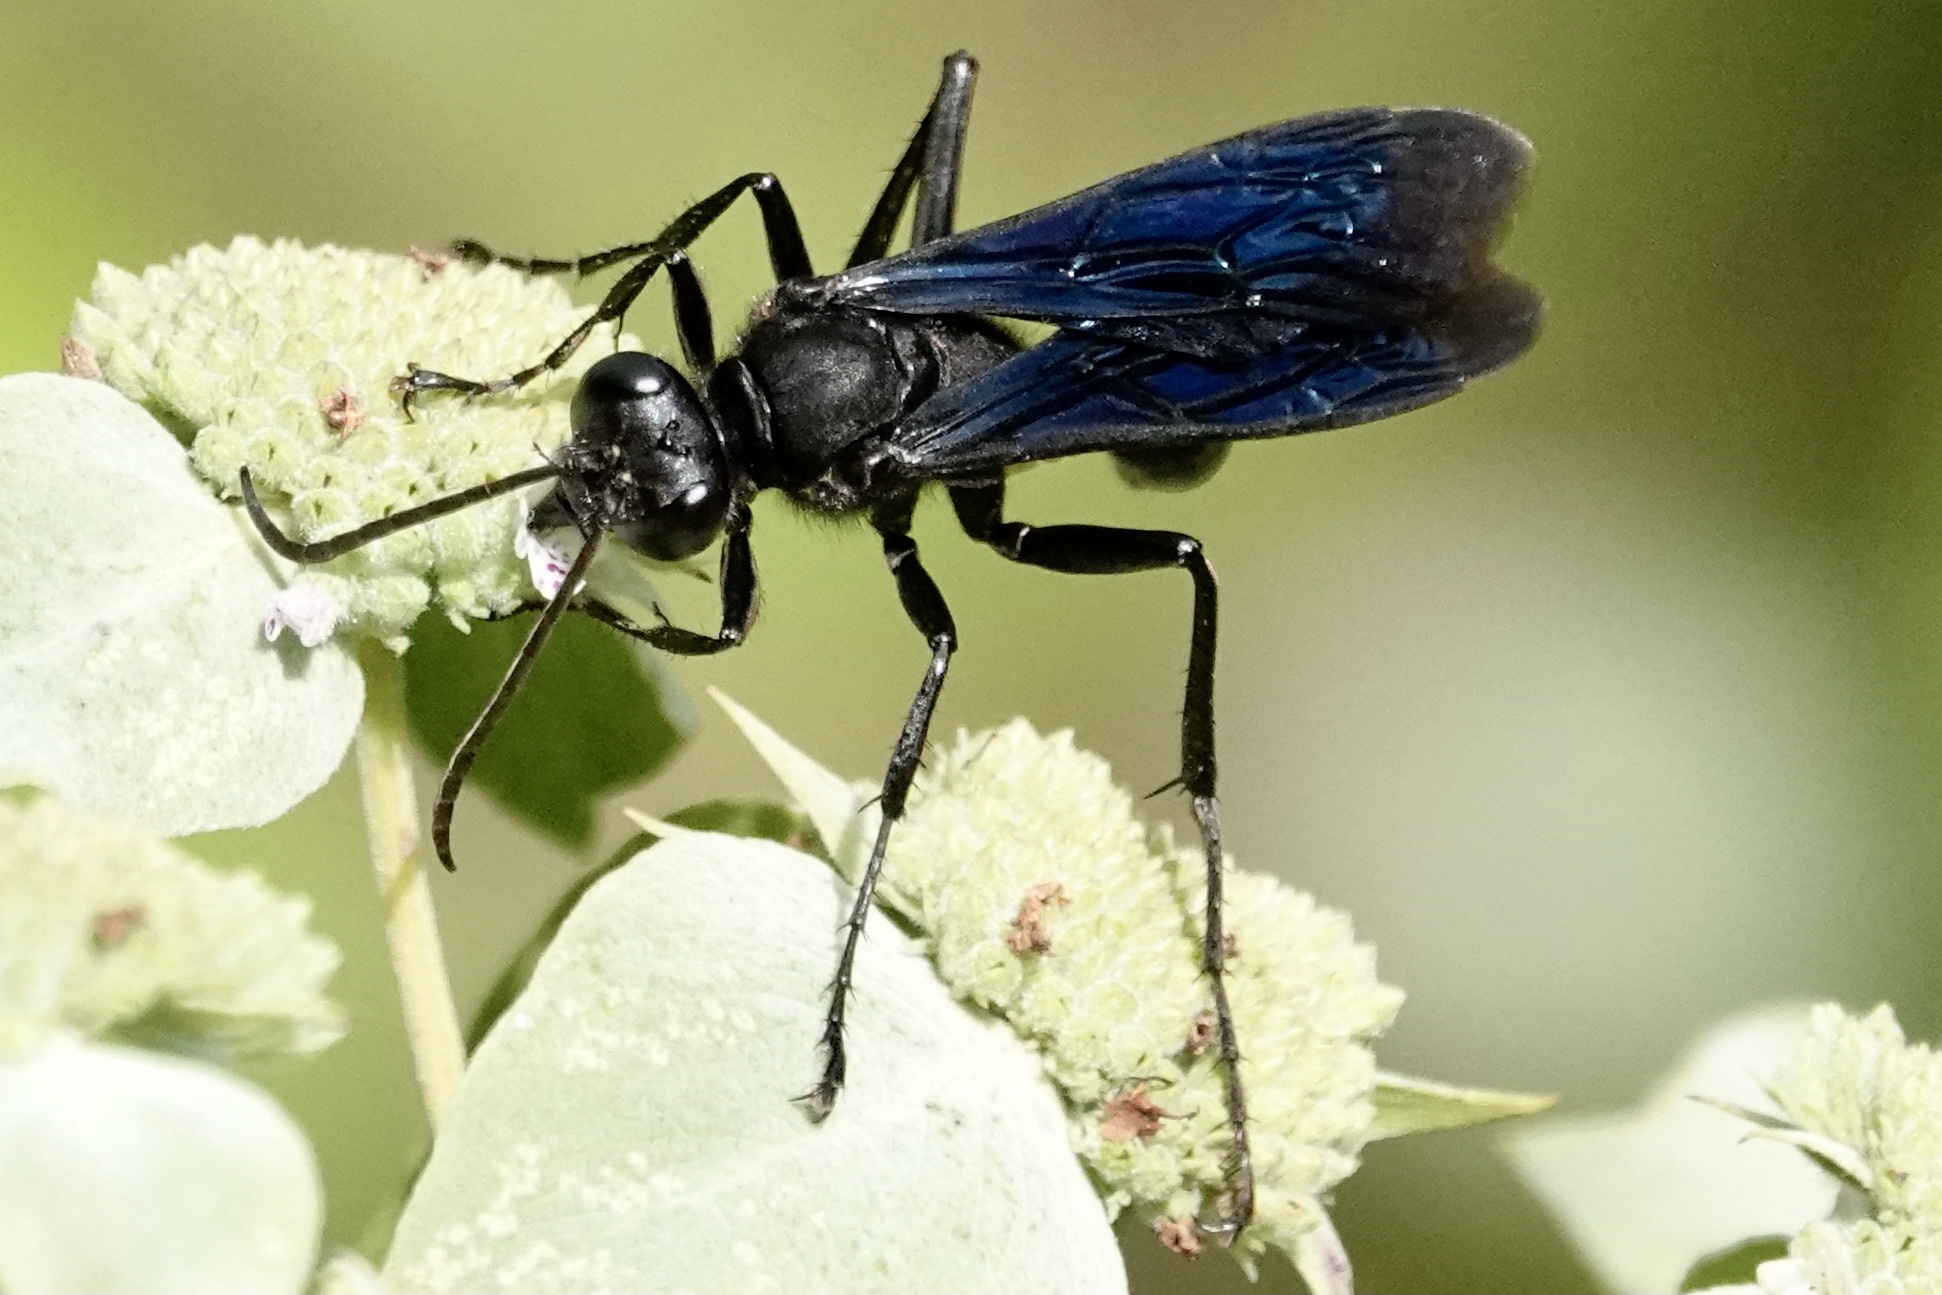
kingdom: Animalia
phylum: Arthropoda
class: Insecta
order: Hymenoptera
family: Sphecidae
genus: Sphex
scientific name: Sphex pensylvanicus
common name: Great black digger wasp
